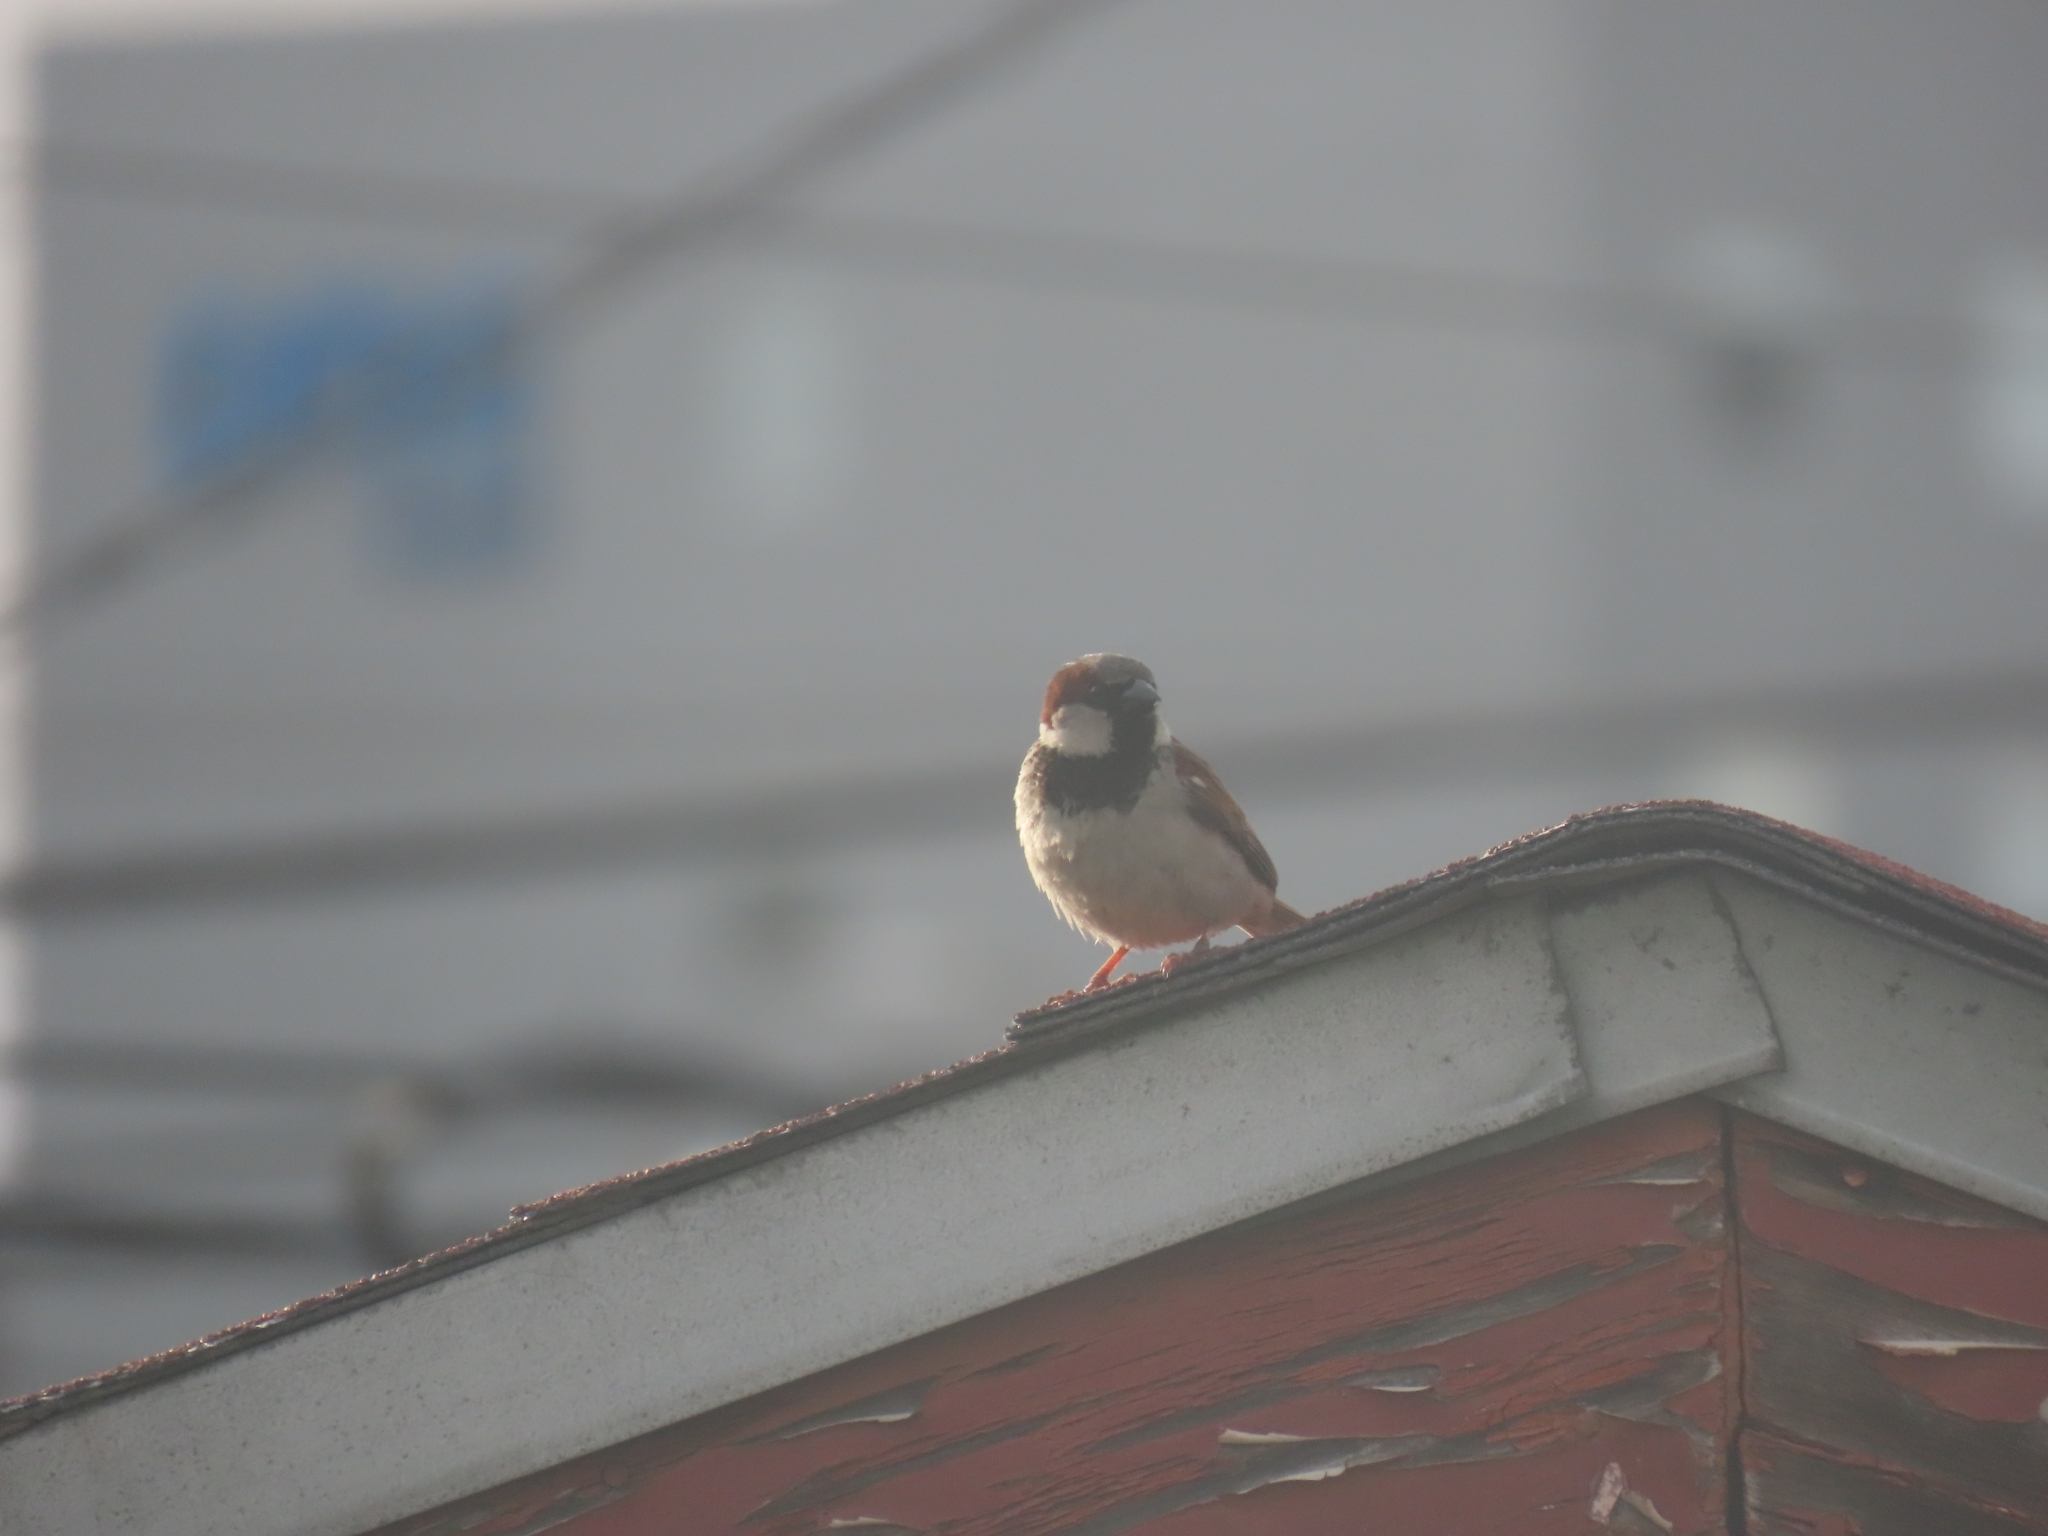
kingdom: Animalia
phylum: Chordata
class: Aves
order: Passeriformes
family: Passeridae
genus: Passer
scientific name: Passer domesticus
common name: House sparrow
